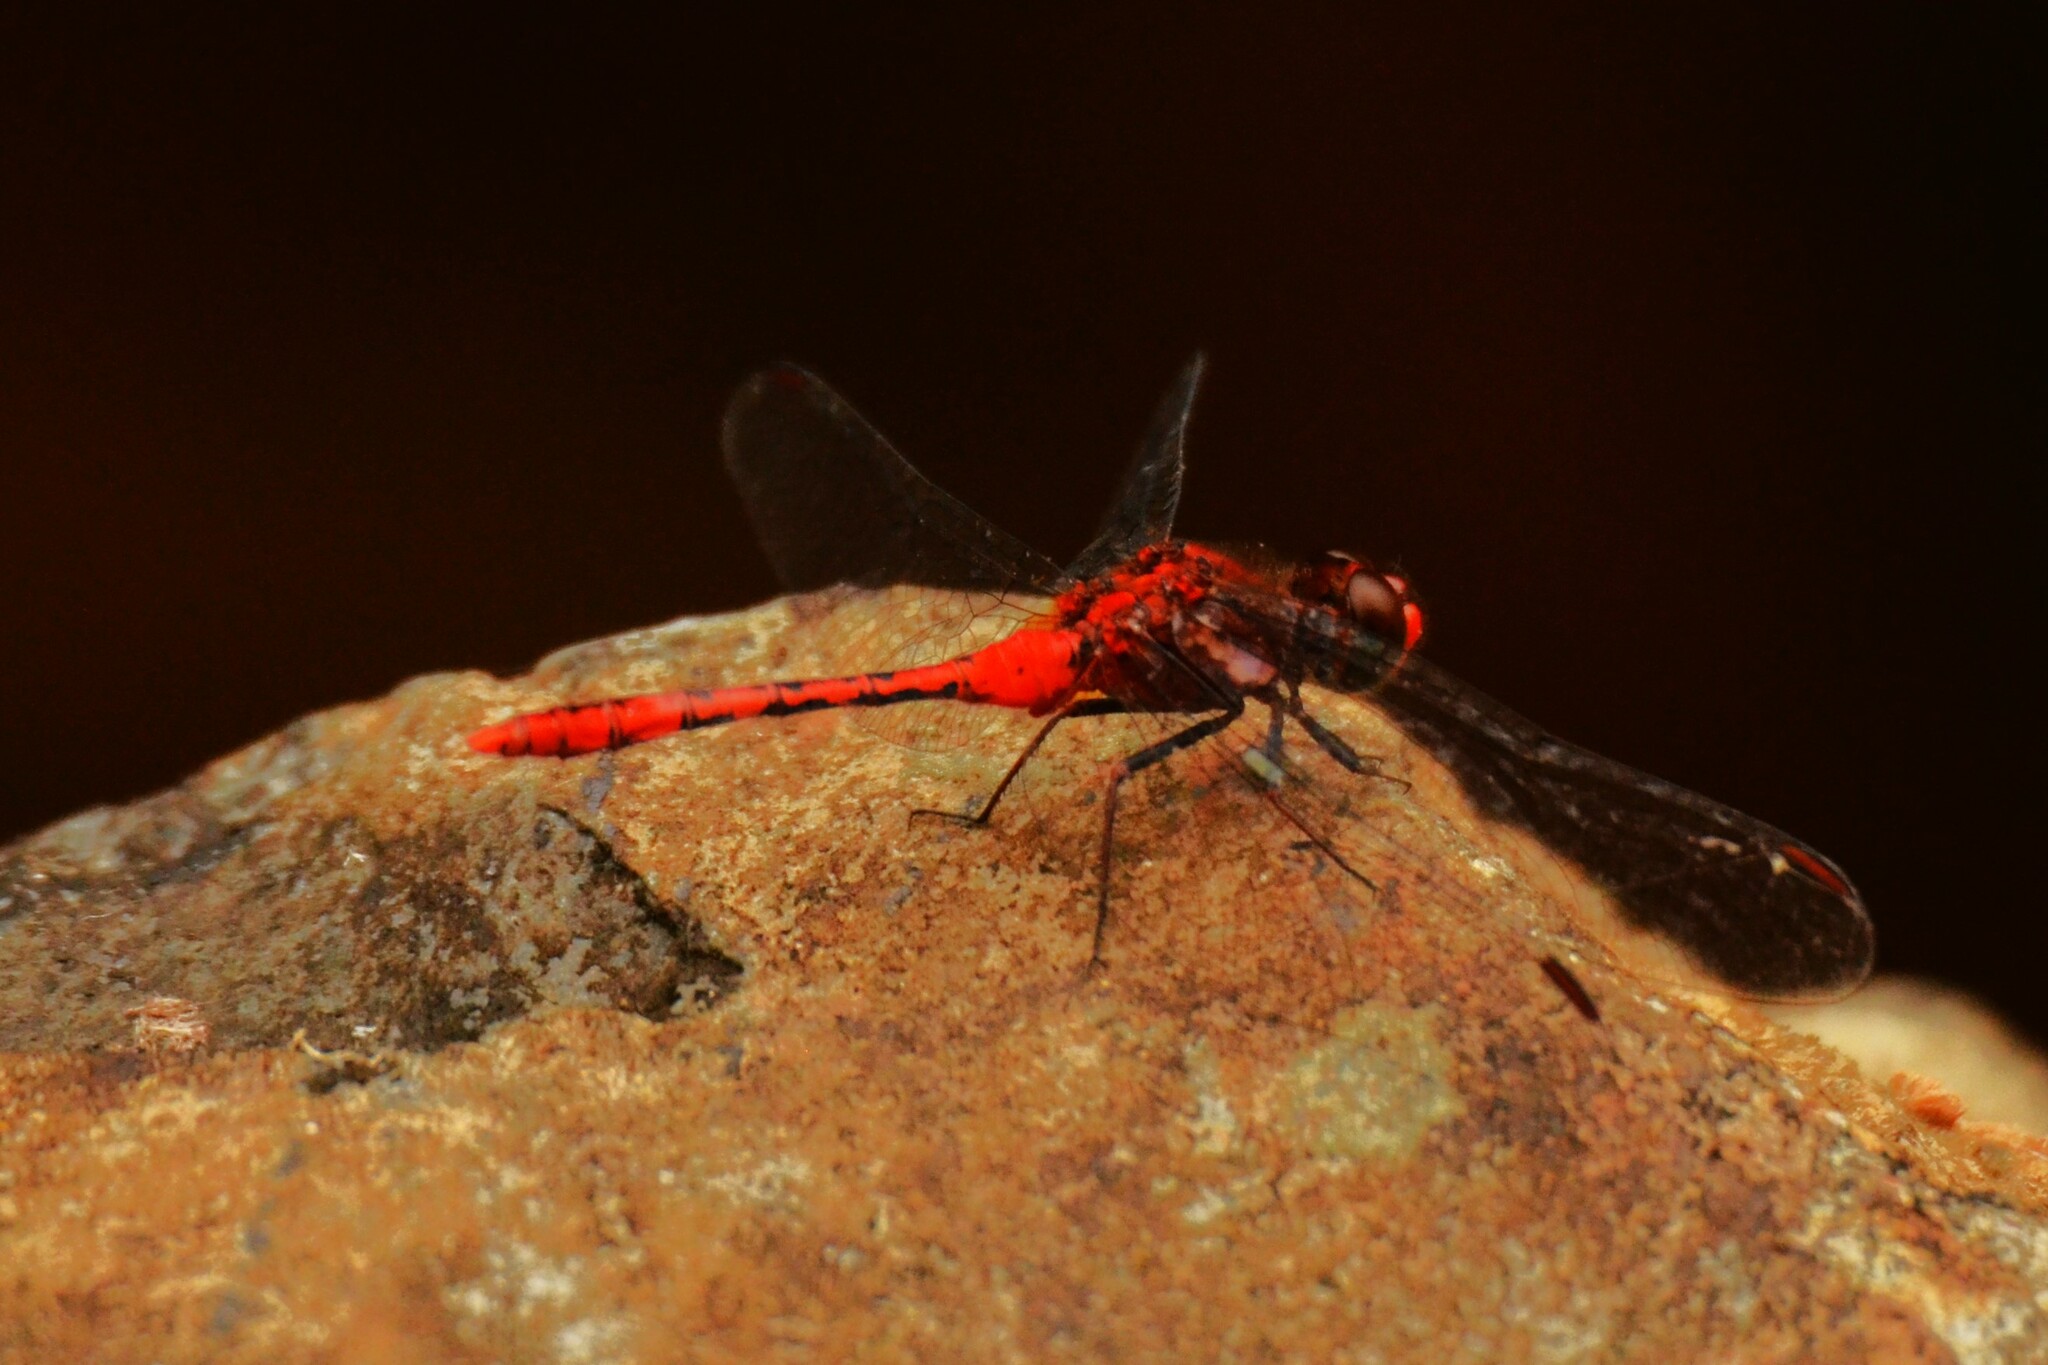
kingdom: Animalia
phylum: Arthropoda
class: Insecta
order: Odonata
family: Libellulidae
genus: Diplacodes
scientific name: Diplacodes bipunctata
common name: Red percher dragonfly
